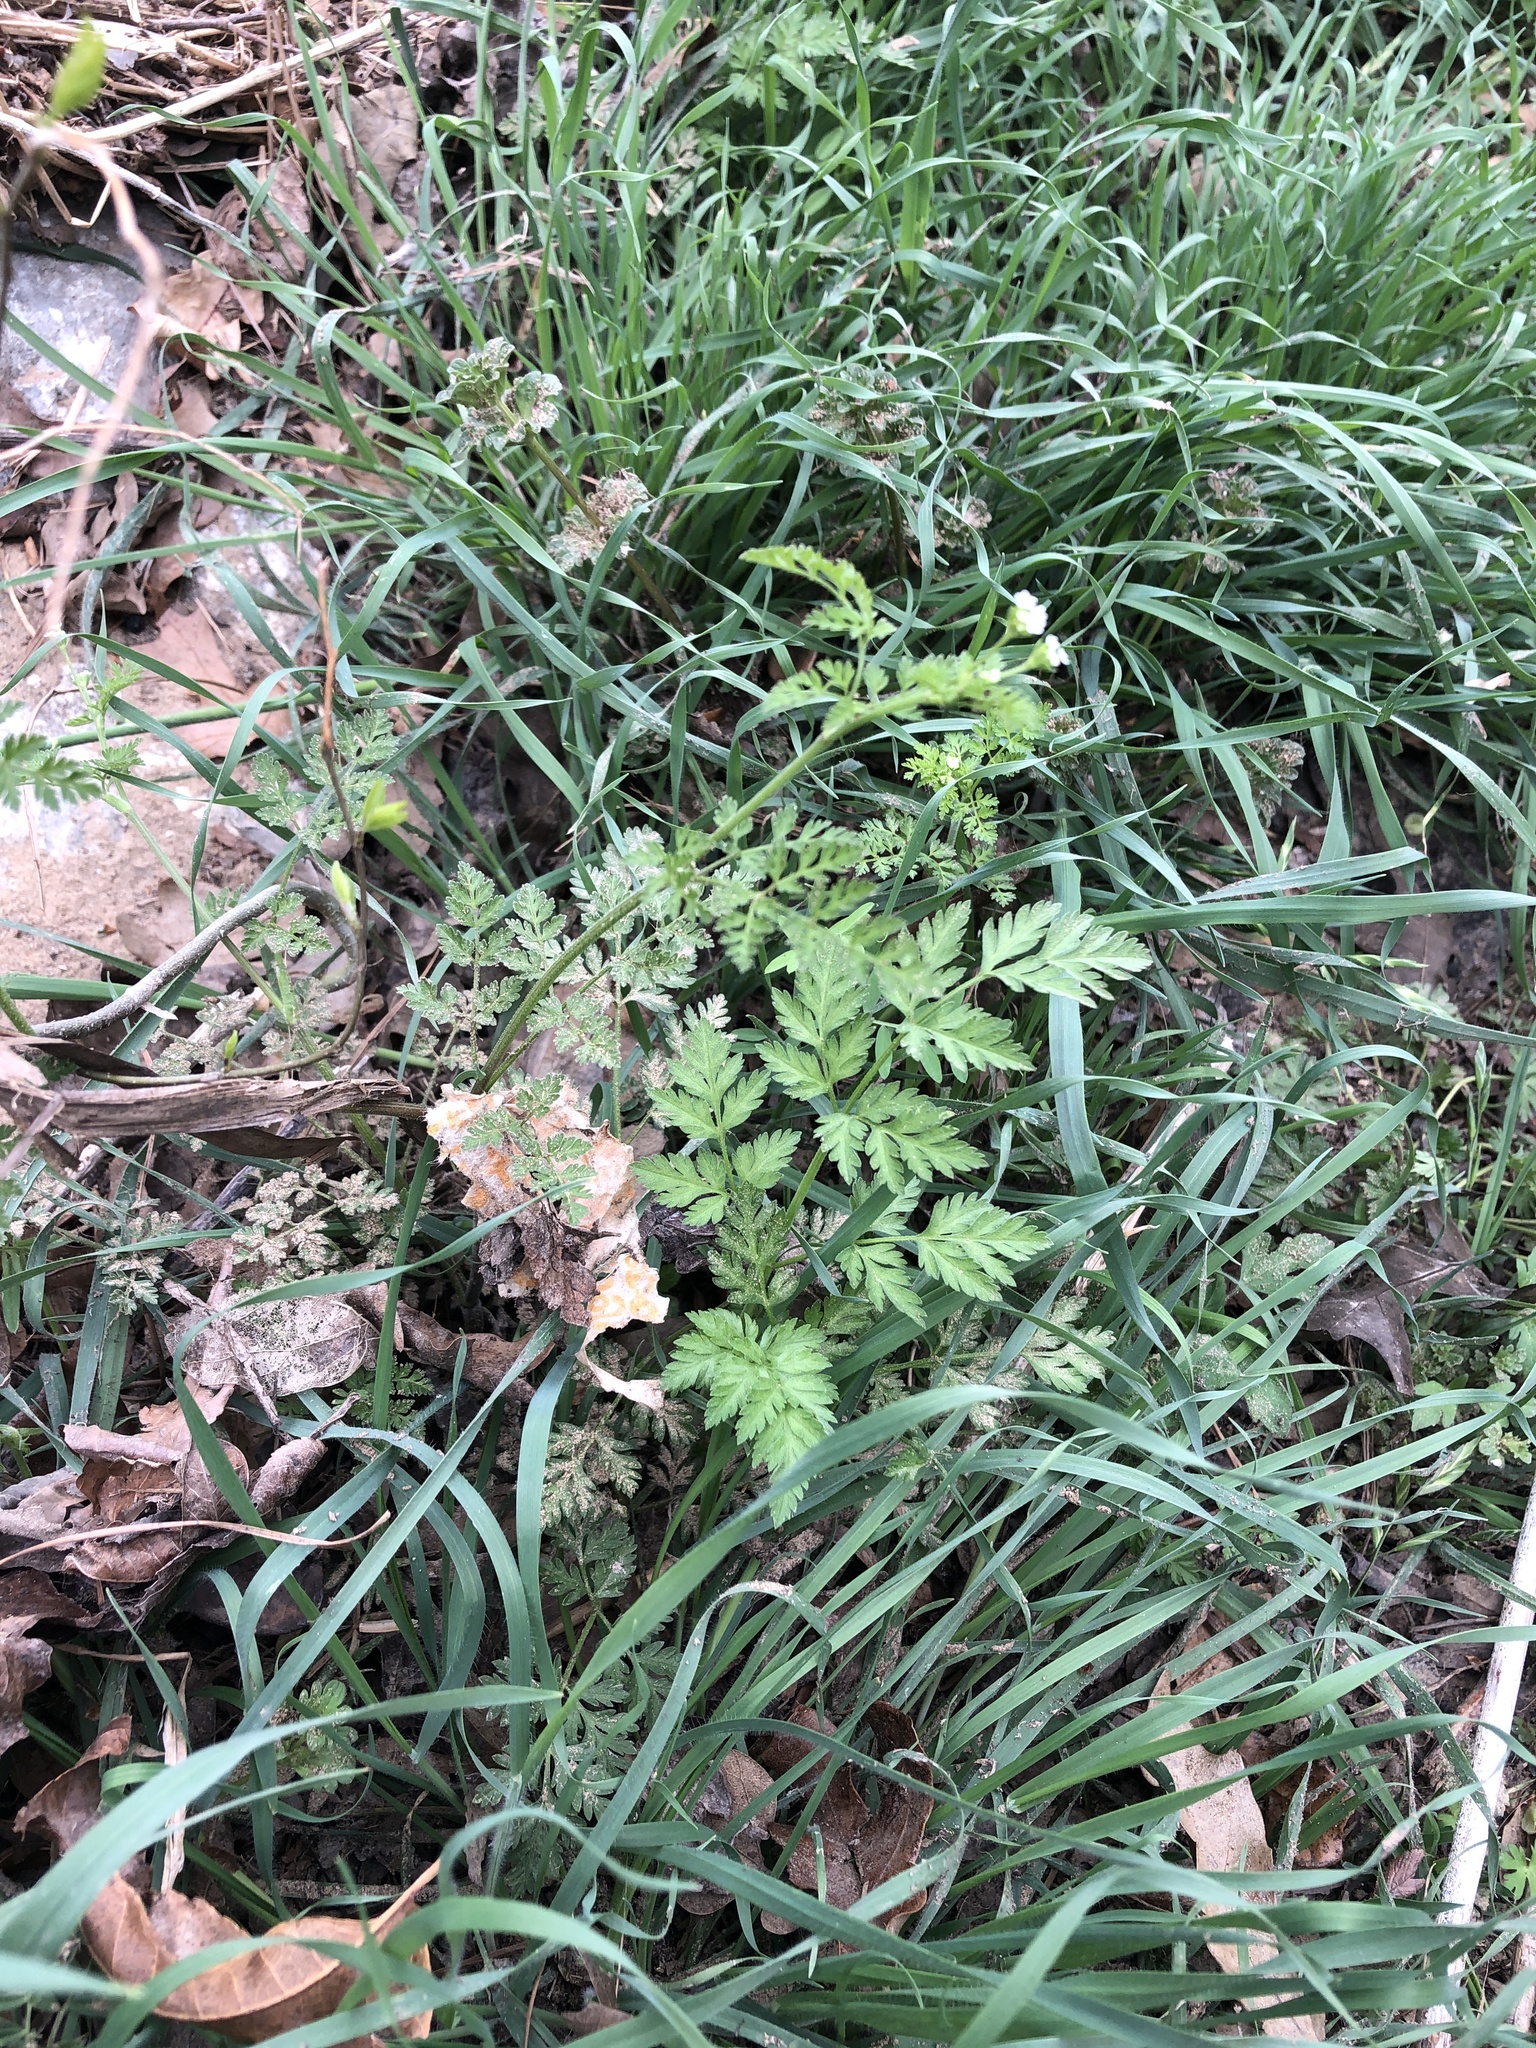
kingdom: Plantae
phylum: Tracheophyta
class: Magnoliopsida
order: Apiales
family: Apiaceae
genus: Chaerophyllum
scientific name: Chaerophyllum tainturieri
